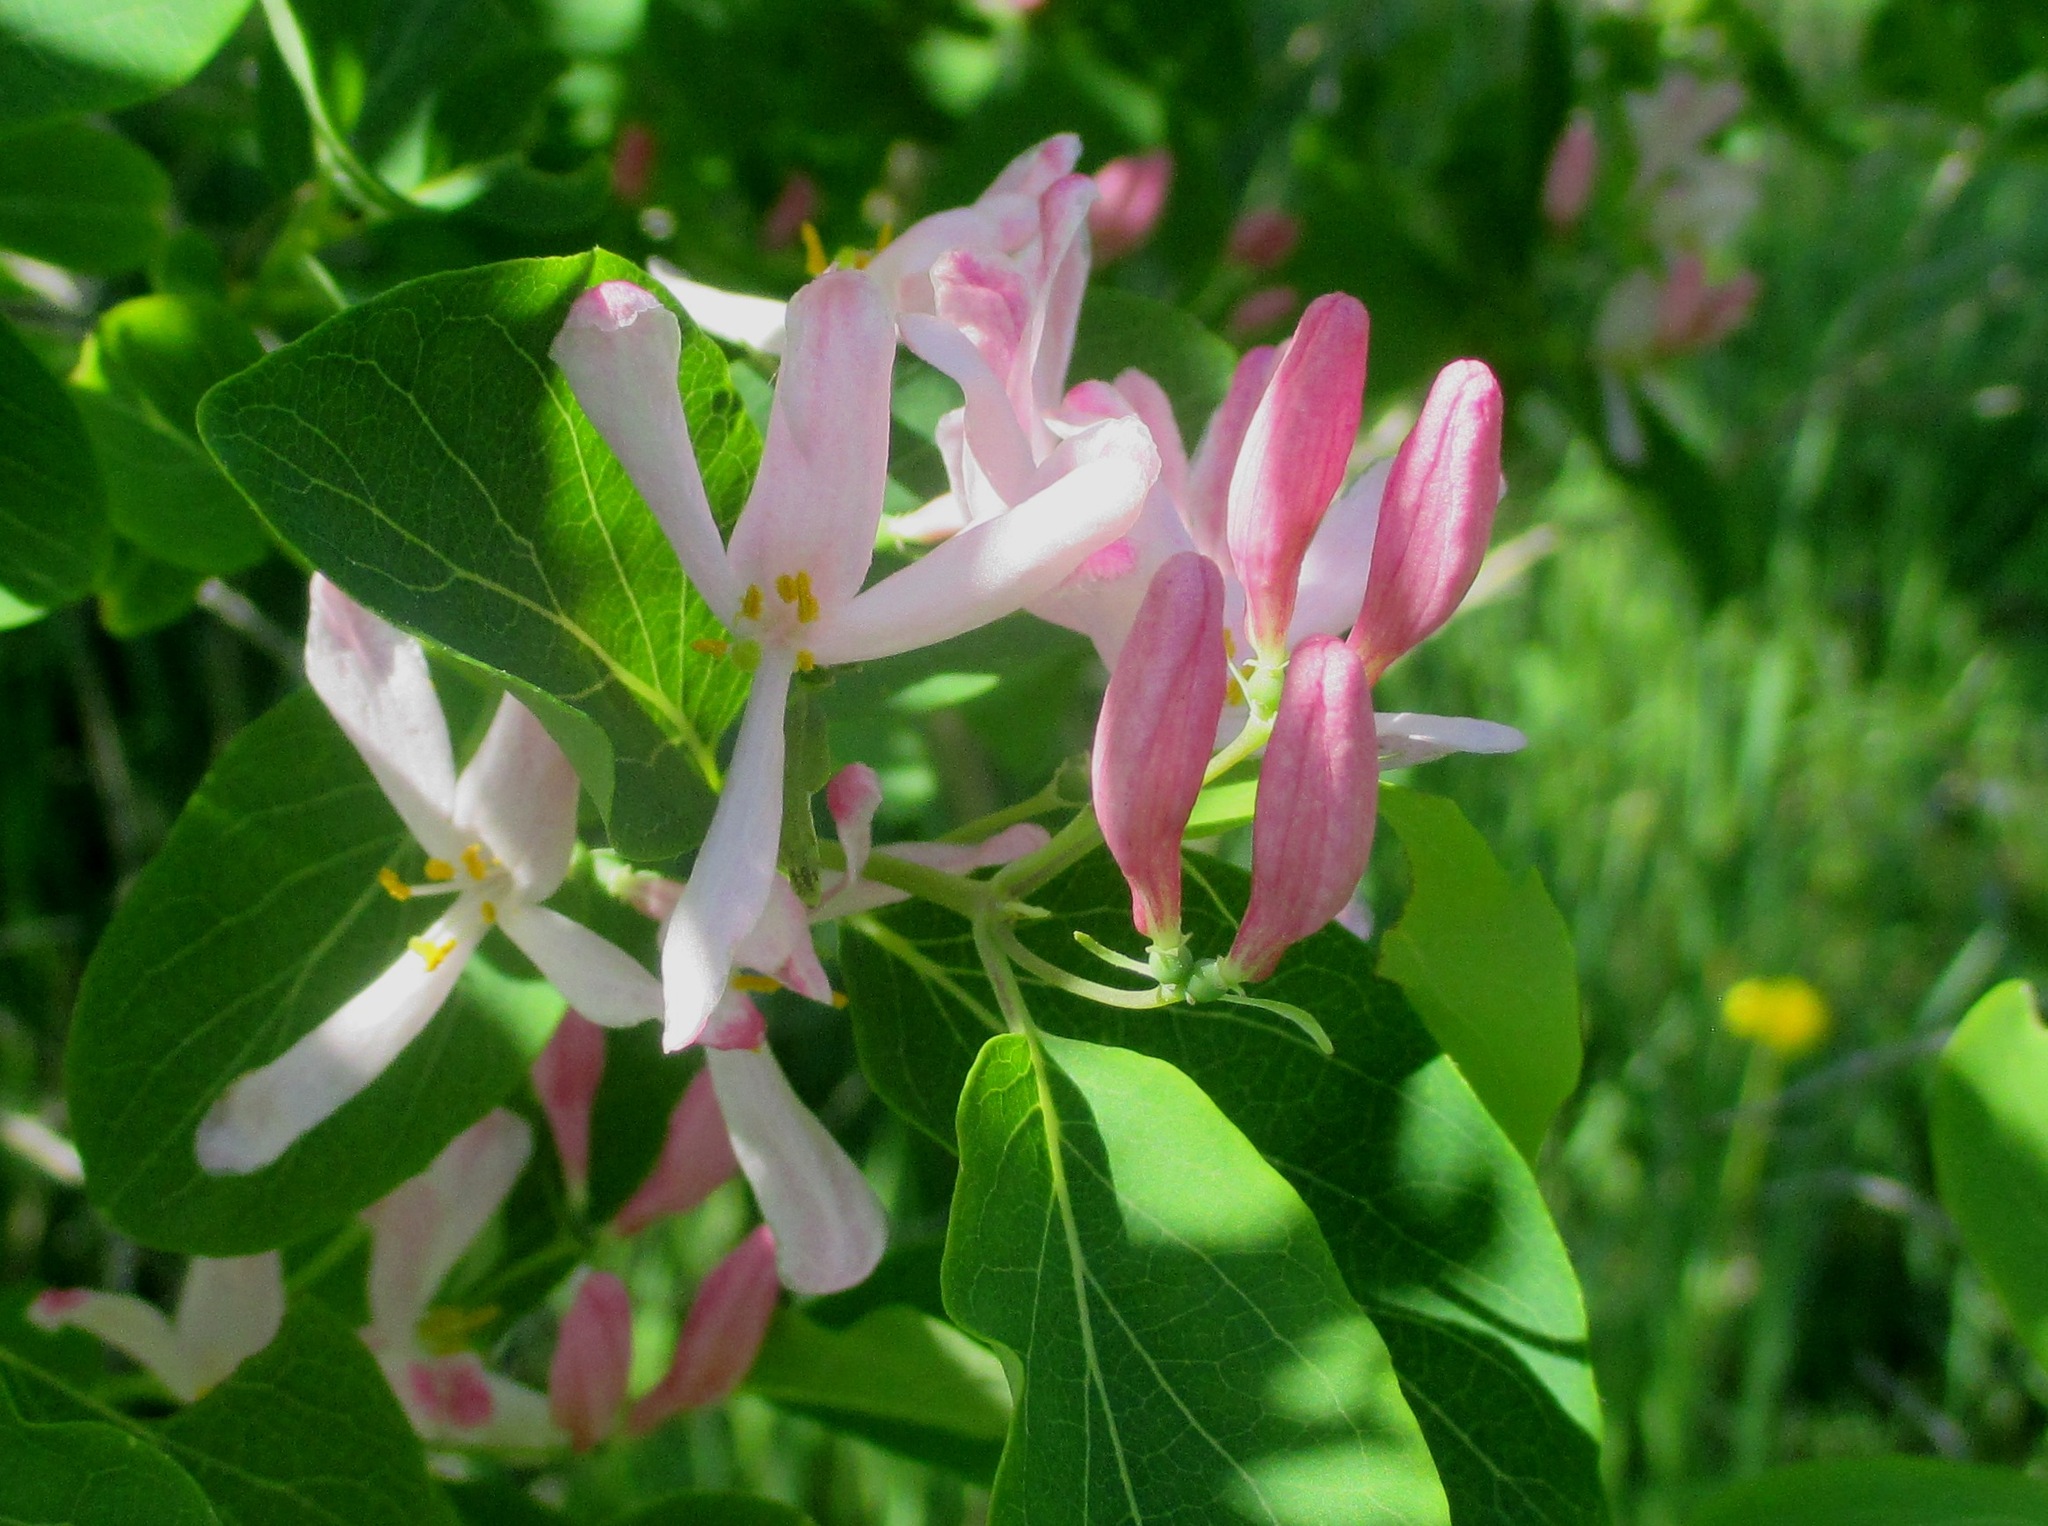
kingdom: Plantae
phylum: Tracheophyta
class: Magnoliopsida
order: Dipsacales
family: Caprifoliaceae
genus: Lonicera
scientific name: Lonicera tatarica
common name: Tatarian honeysuckle
